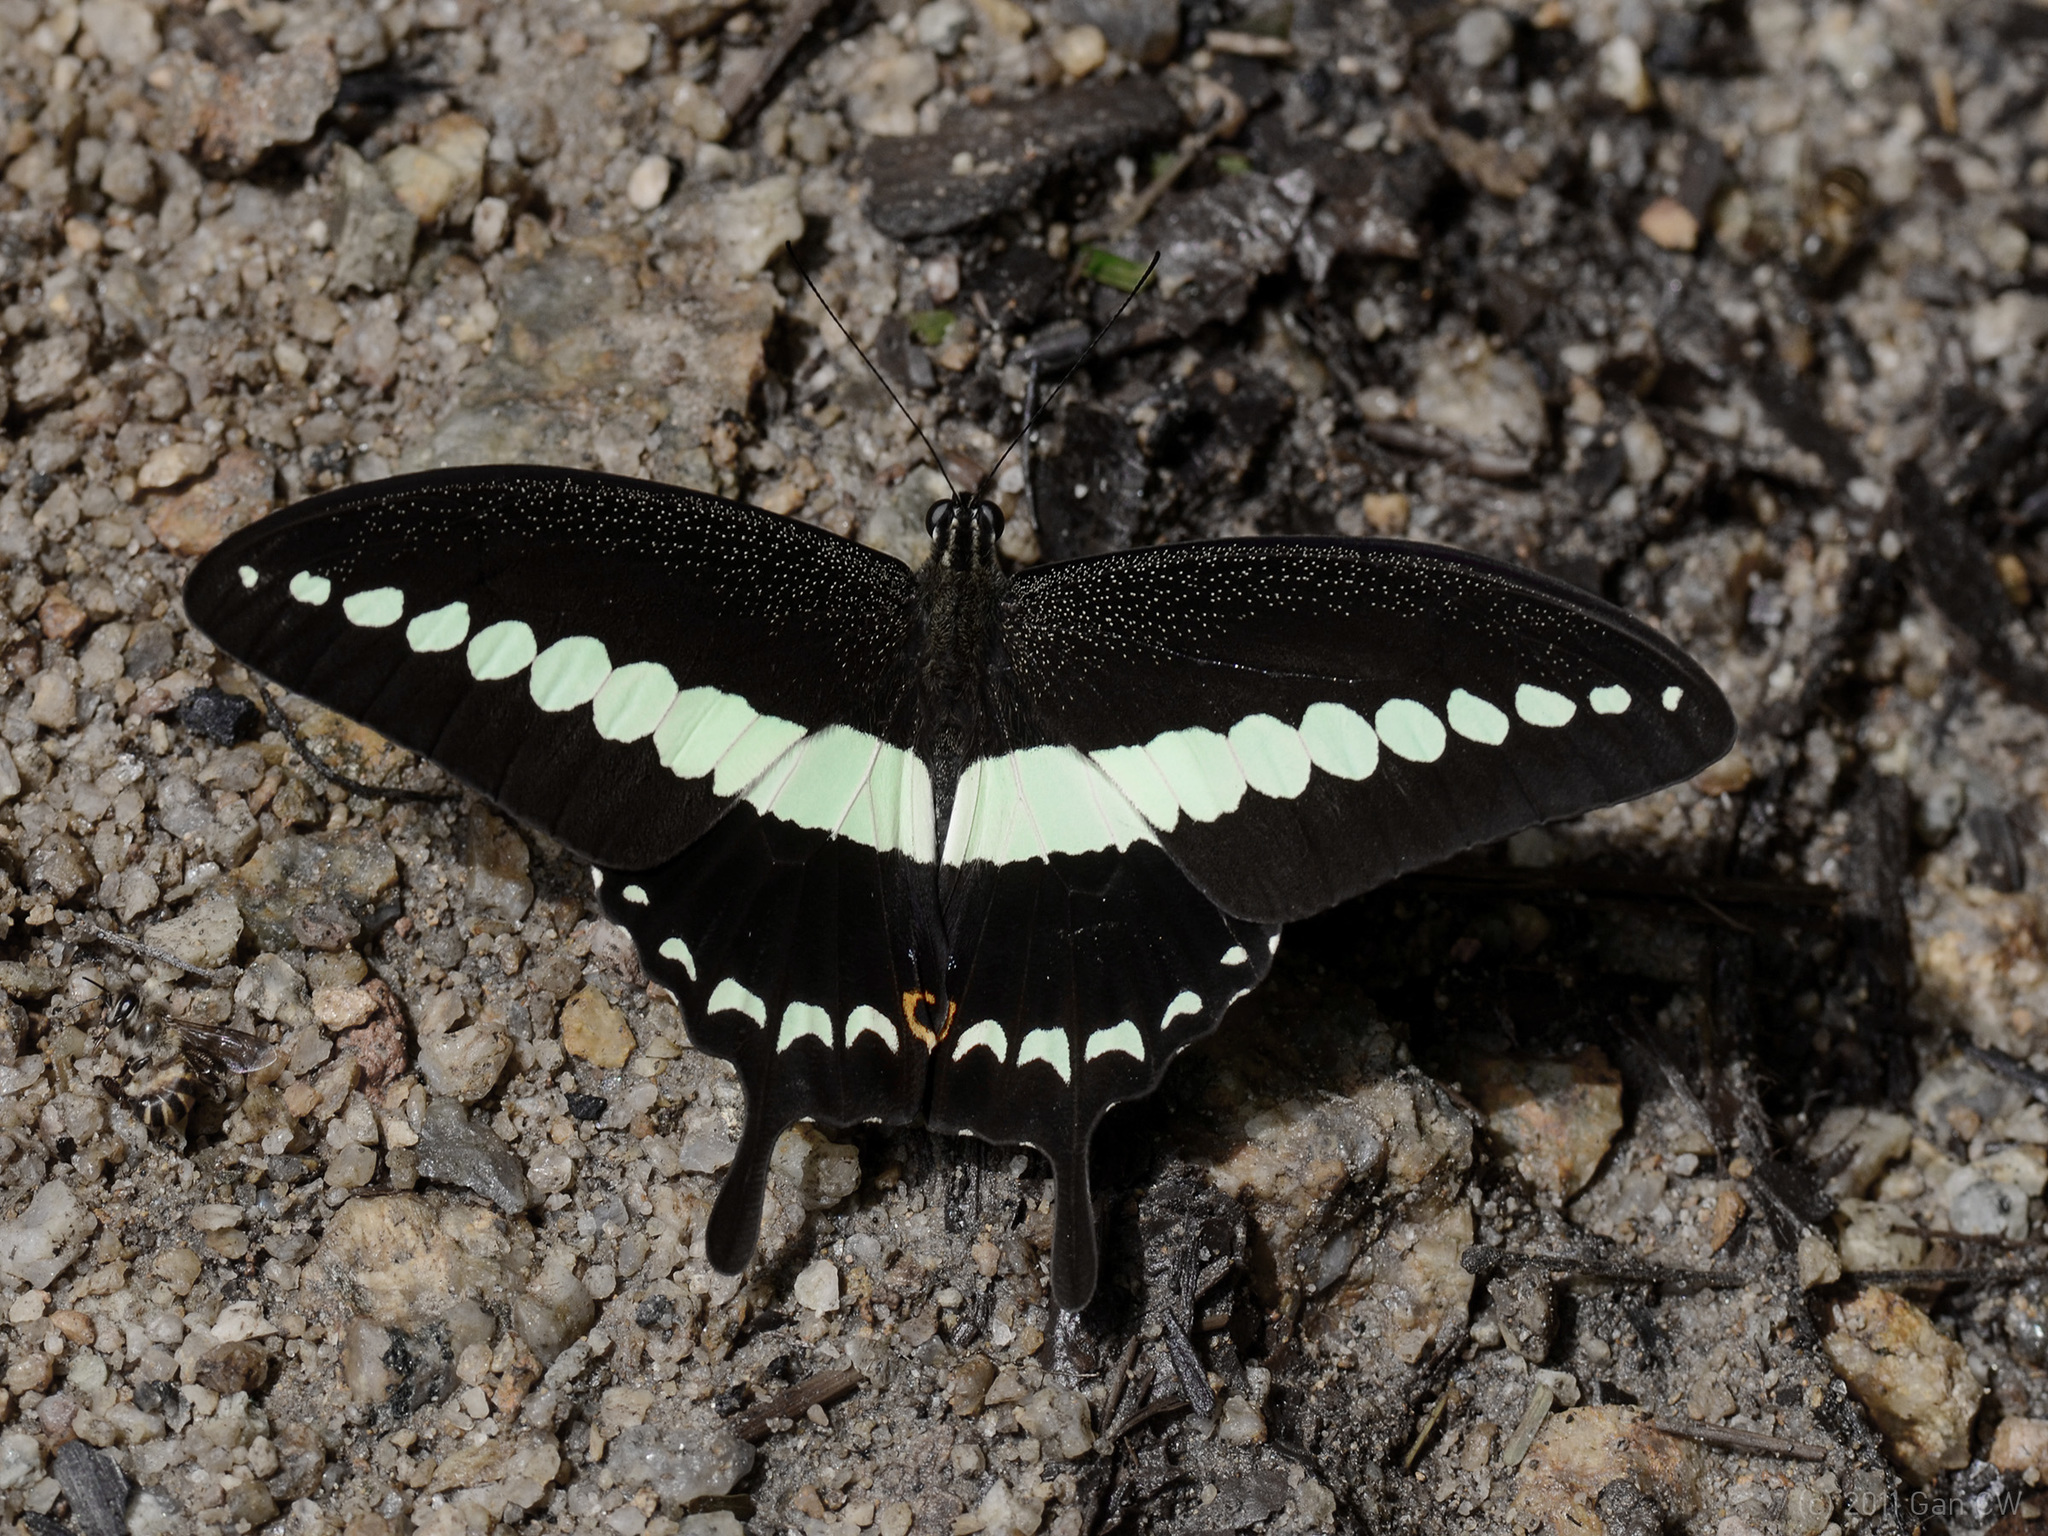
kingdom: Animalia
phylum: Arthropoda
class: Insecta
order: Lepidoptera
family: Papilionidae
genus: Papilio
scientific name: Papilio demolion
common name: Banded swallowtail
